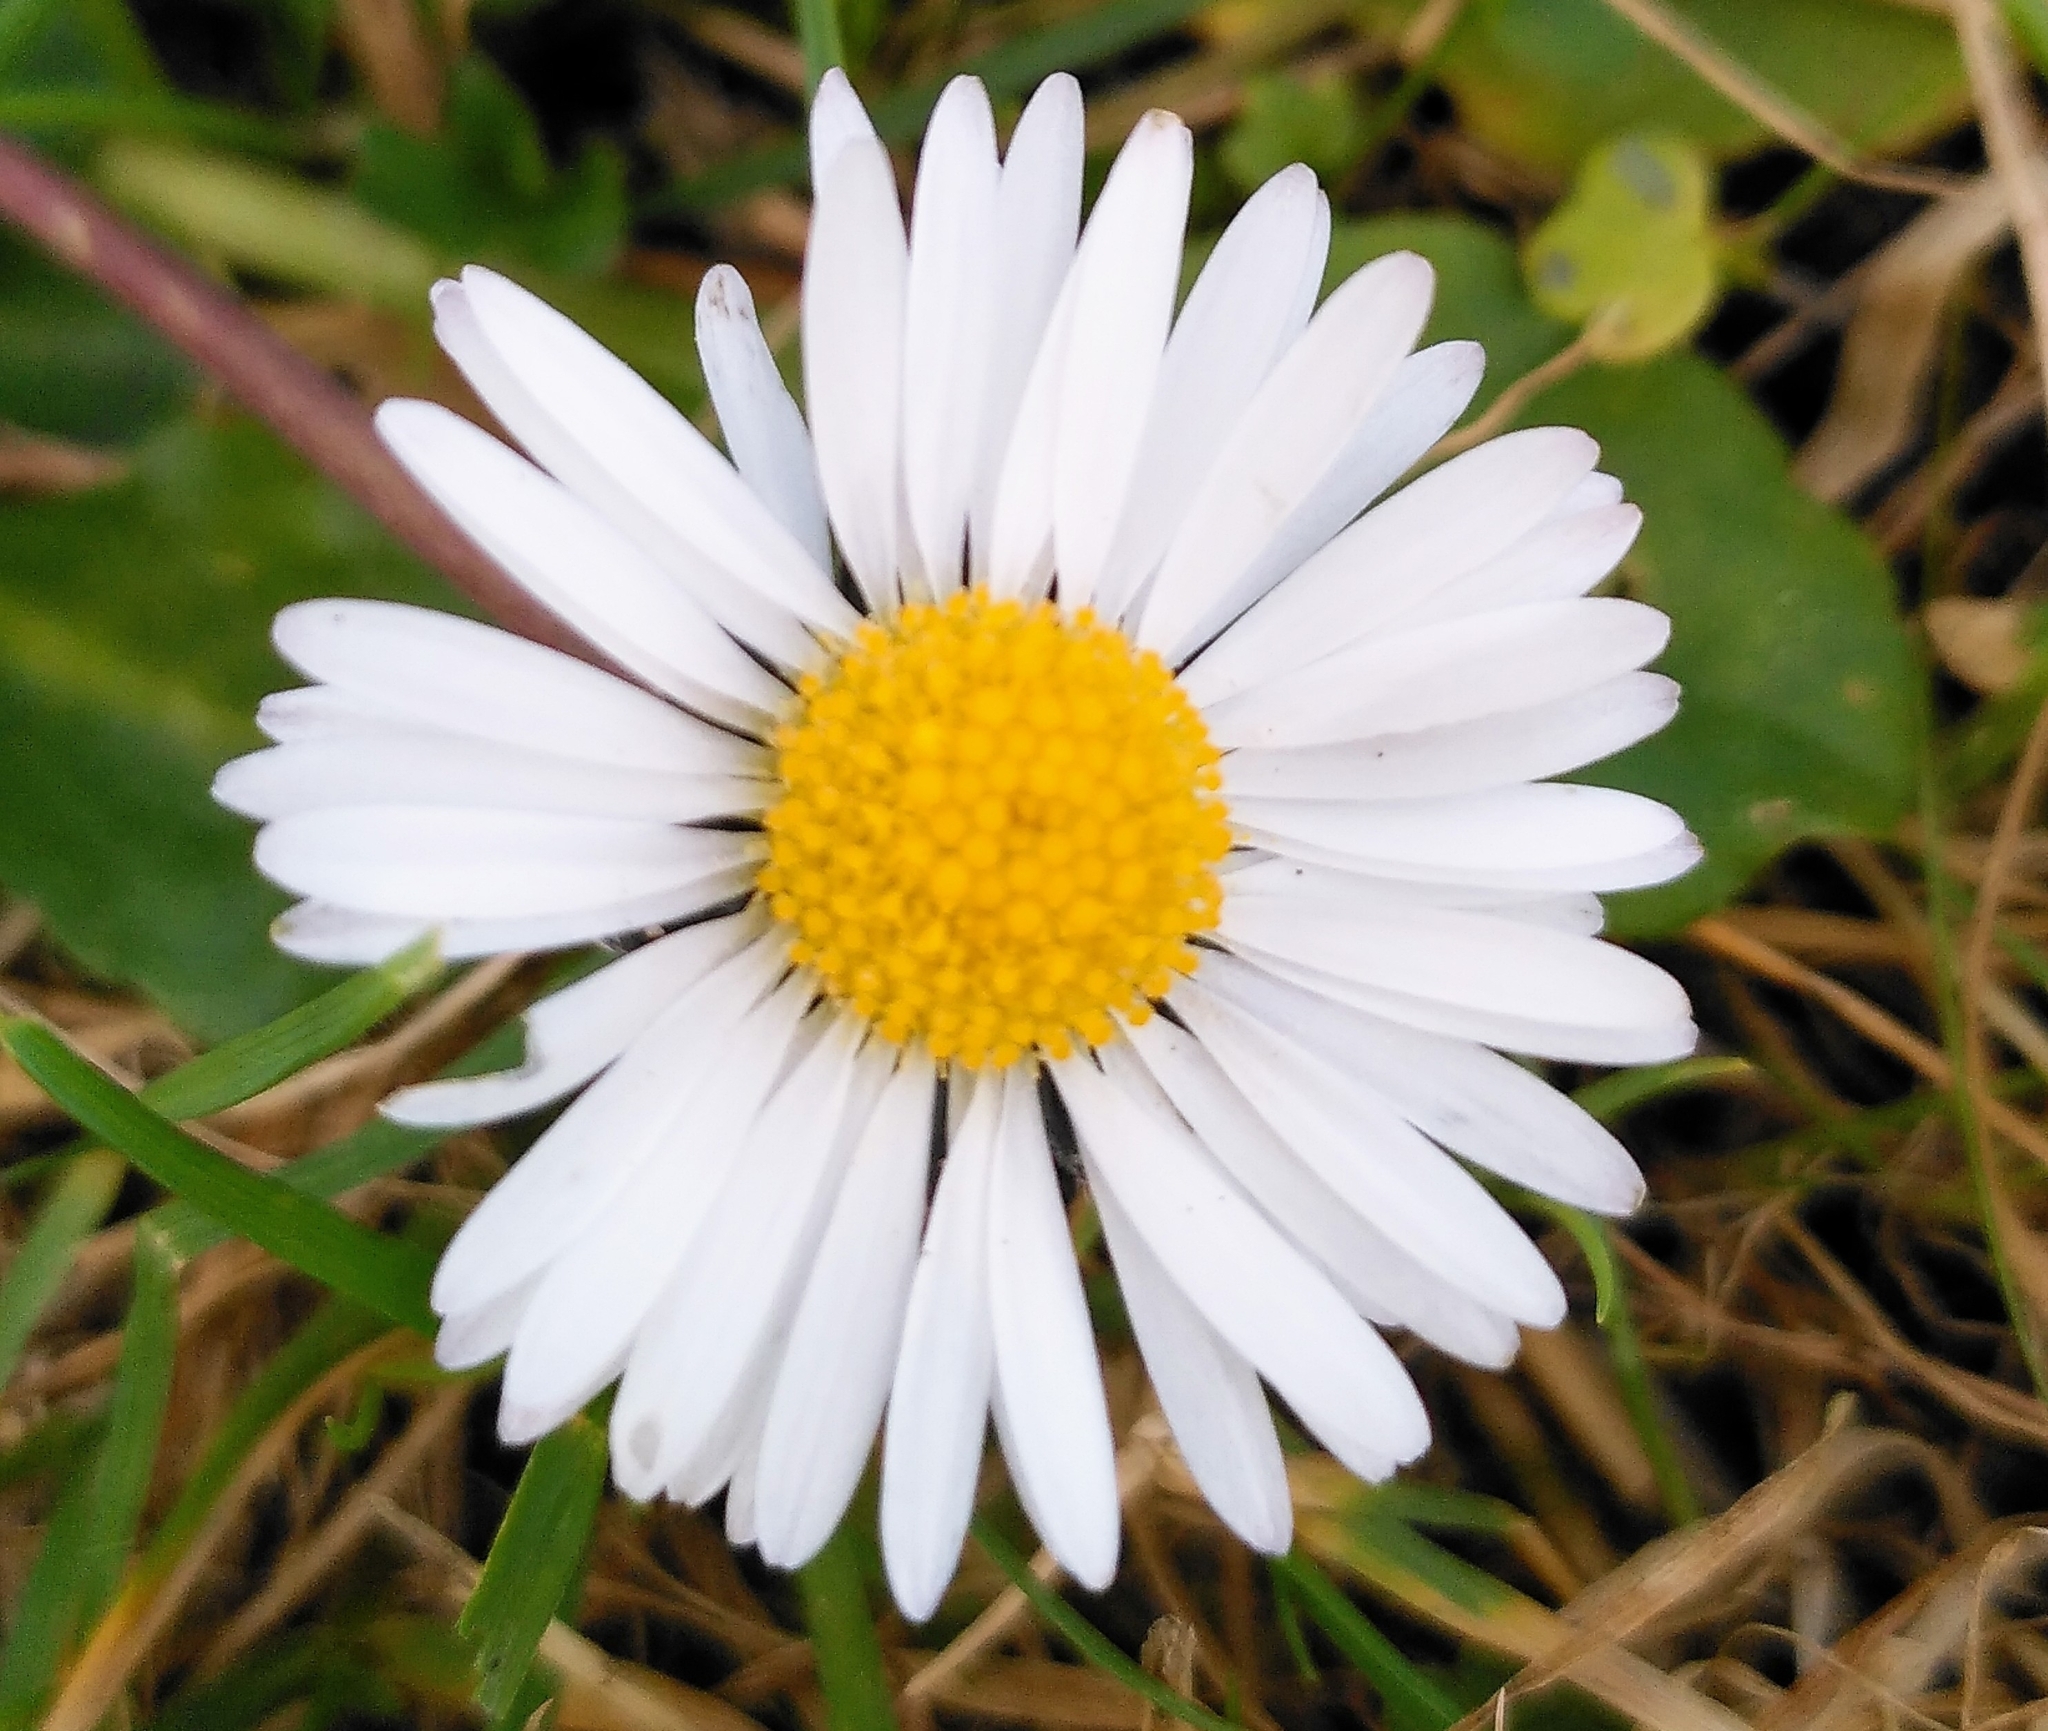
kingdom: Plantae
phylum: Tracheophyta
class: Magnoliopsida
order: Asterales
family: Asteraceae
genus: Bellis
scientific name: Bellis perennis
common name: Lawndaisy
